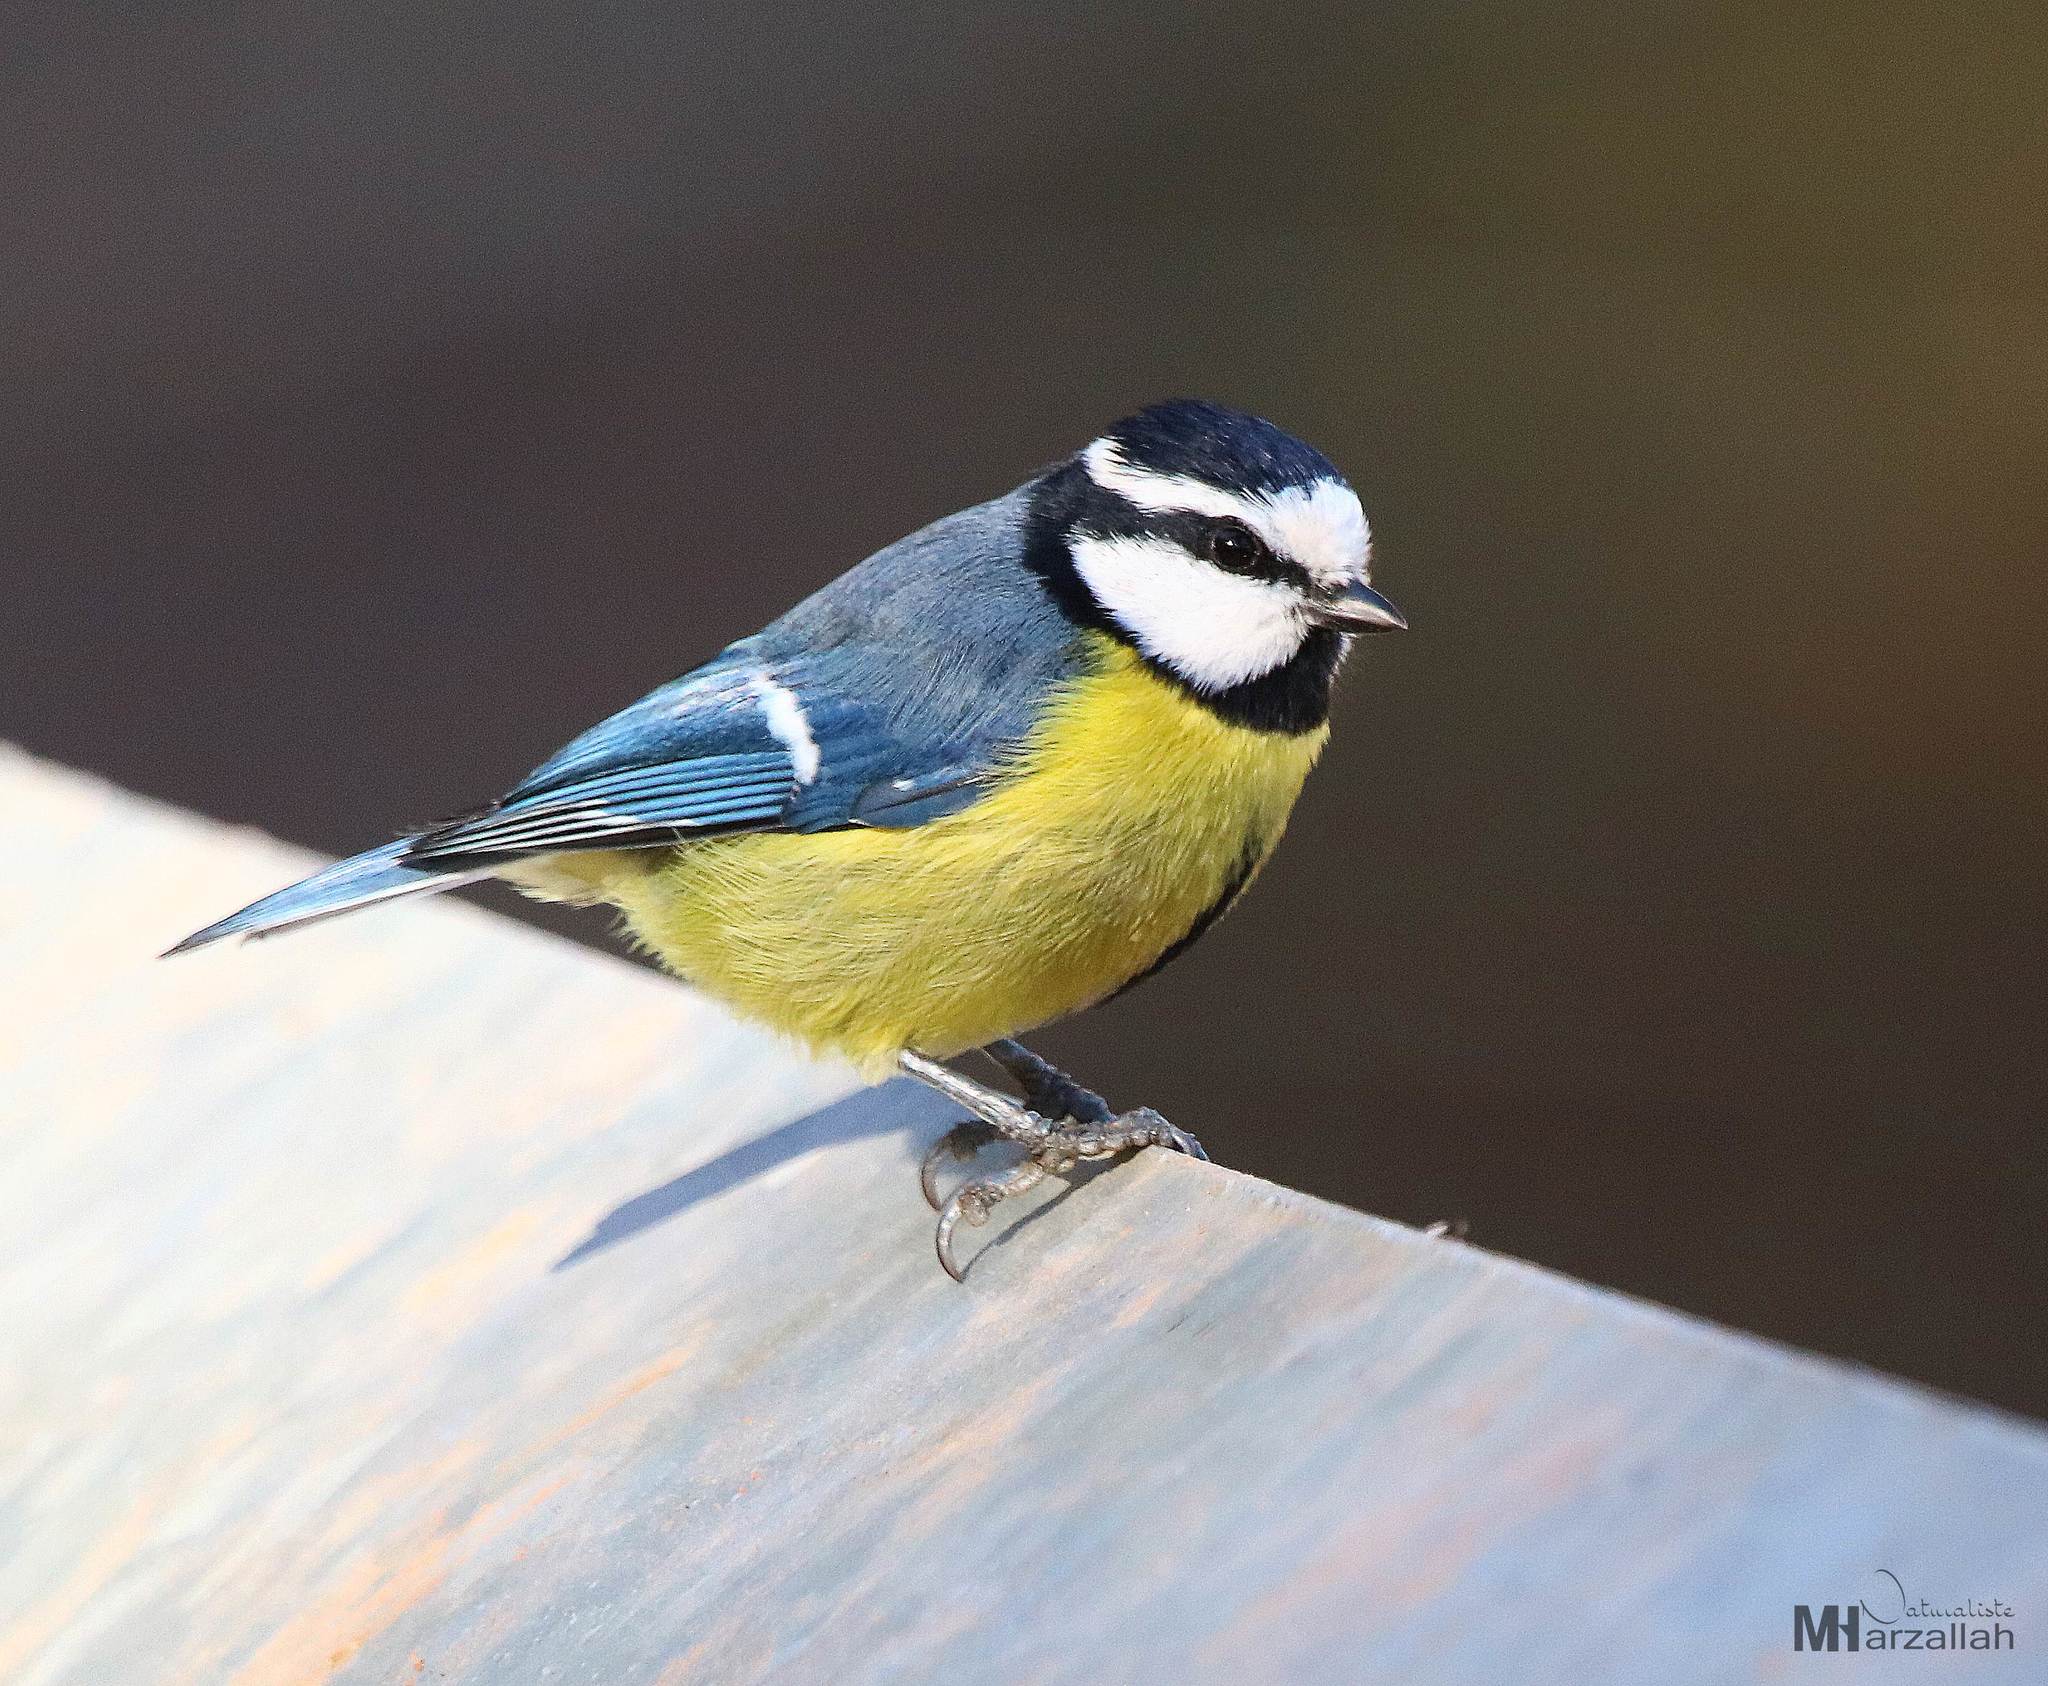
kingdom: Animalia
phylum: Chordata
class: Aves
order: Passeriformes
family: Paridae
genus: Cyanistes
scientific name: Cyanistes teneriffae
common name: African blue tit
